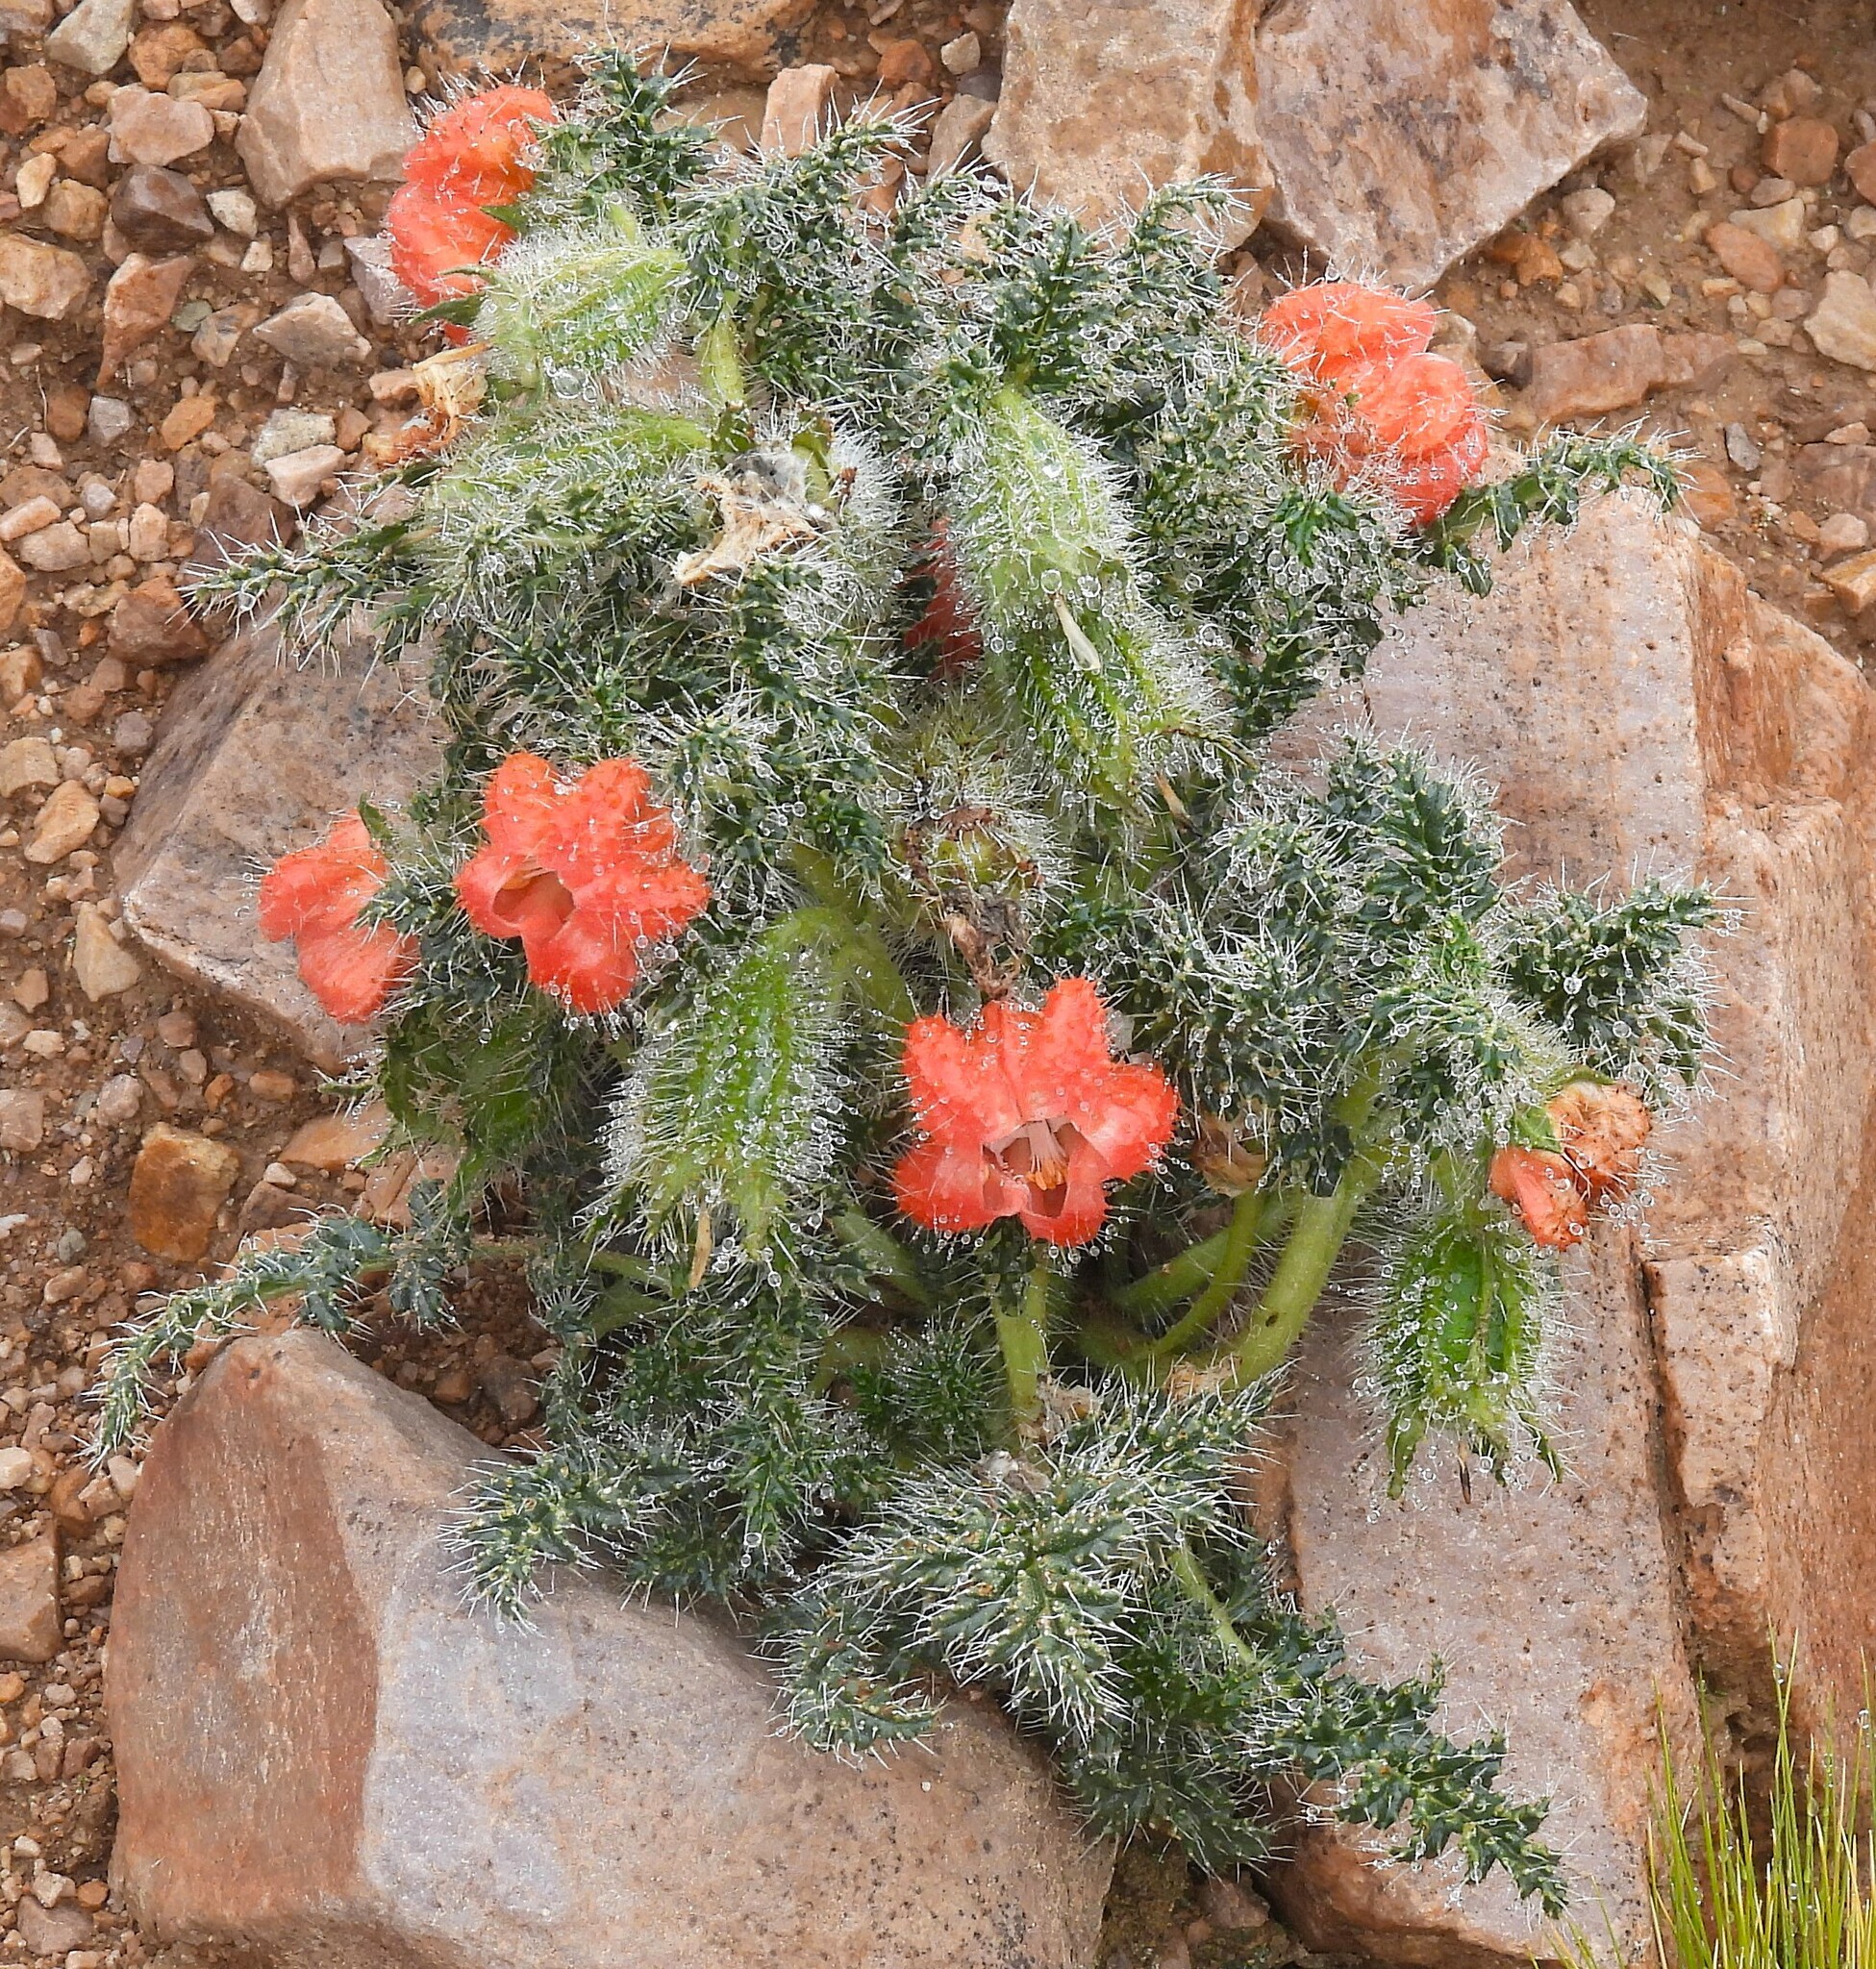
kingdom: Plantae
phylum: Tracheophyta
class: Magnoliopsida
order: Cornales
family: Loasaceae
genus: Caiophora
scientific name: Caiophora chuquitensis
